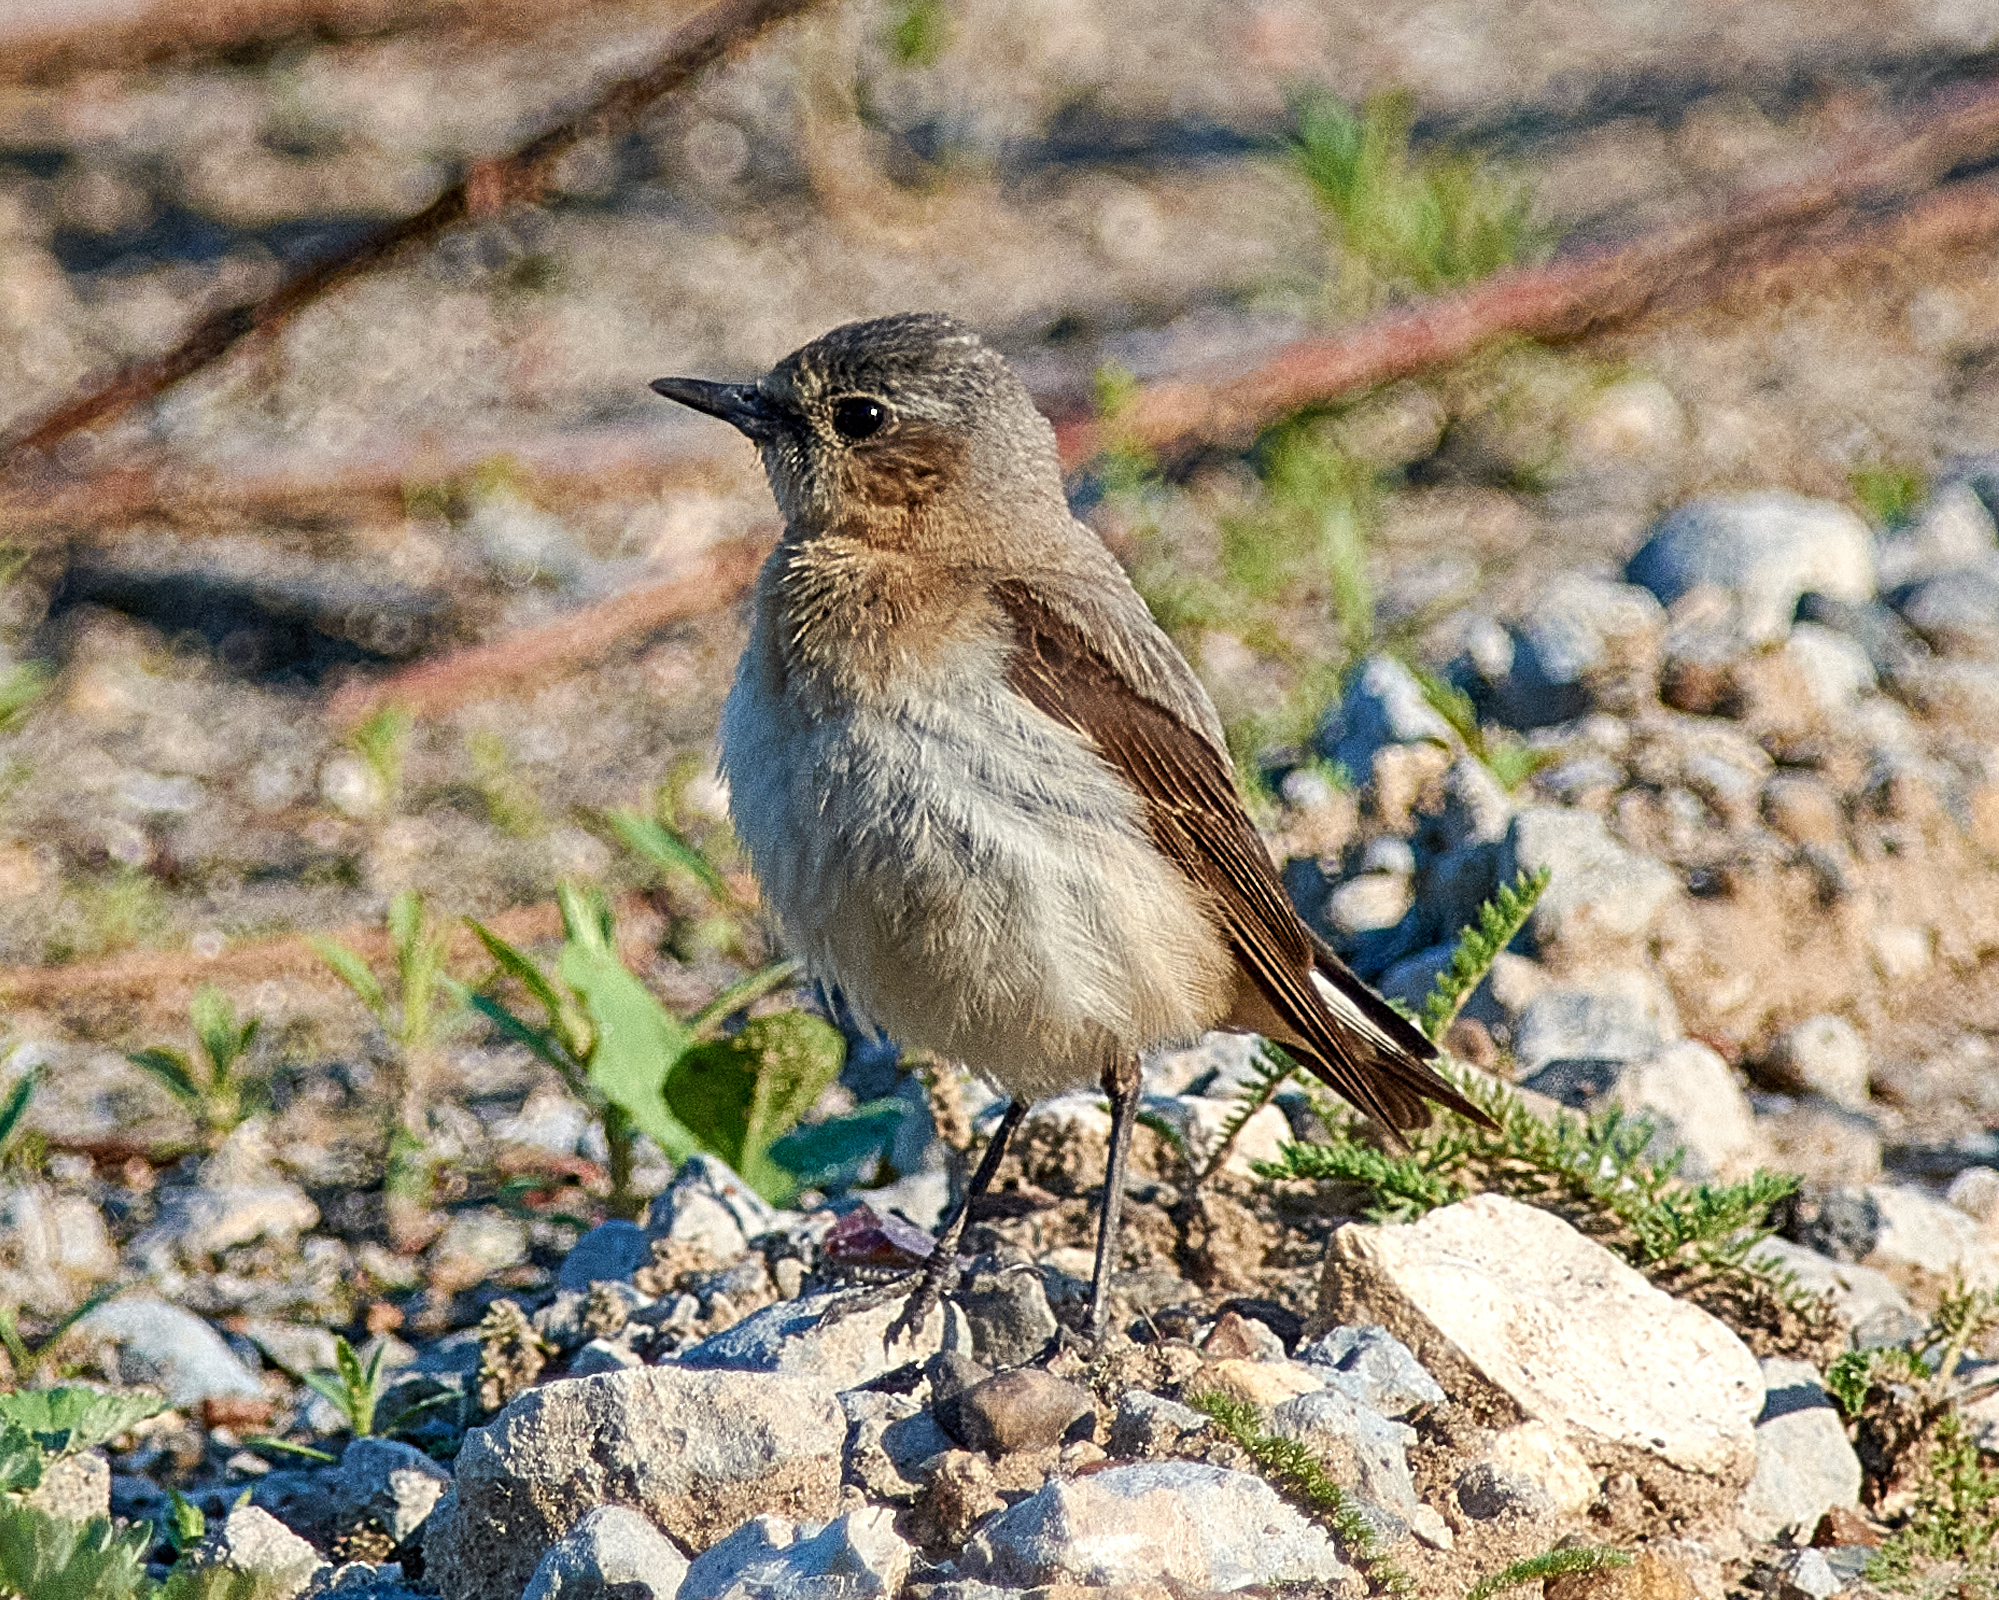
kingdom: Animalia
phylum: Chordata
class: Aves
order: Passeriformes
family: Muscicapidae
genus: Oenanthe
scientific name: Oenanthe oenanthe
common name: Northern wheatear
